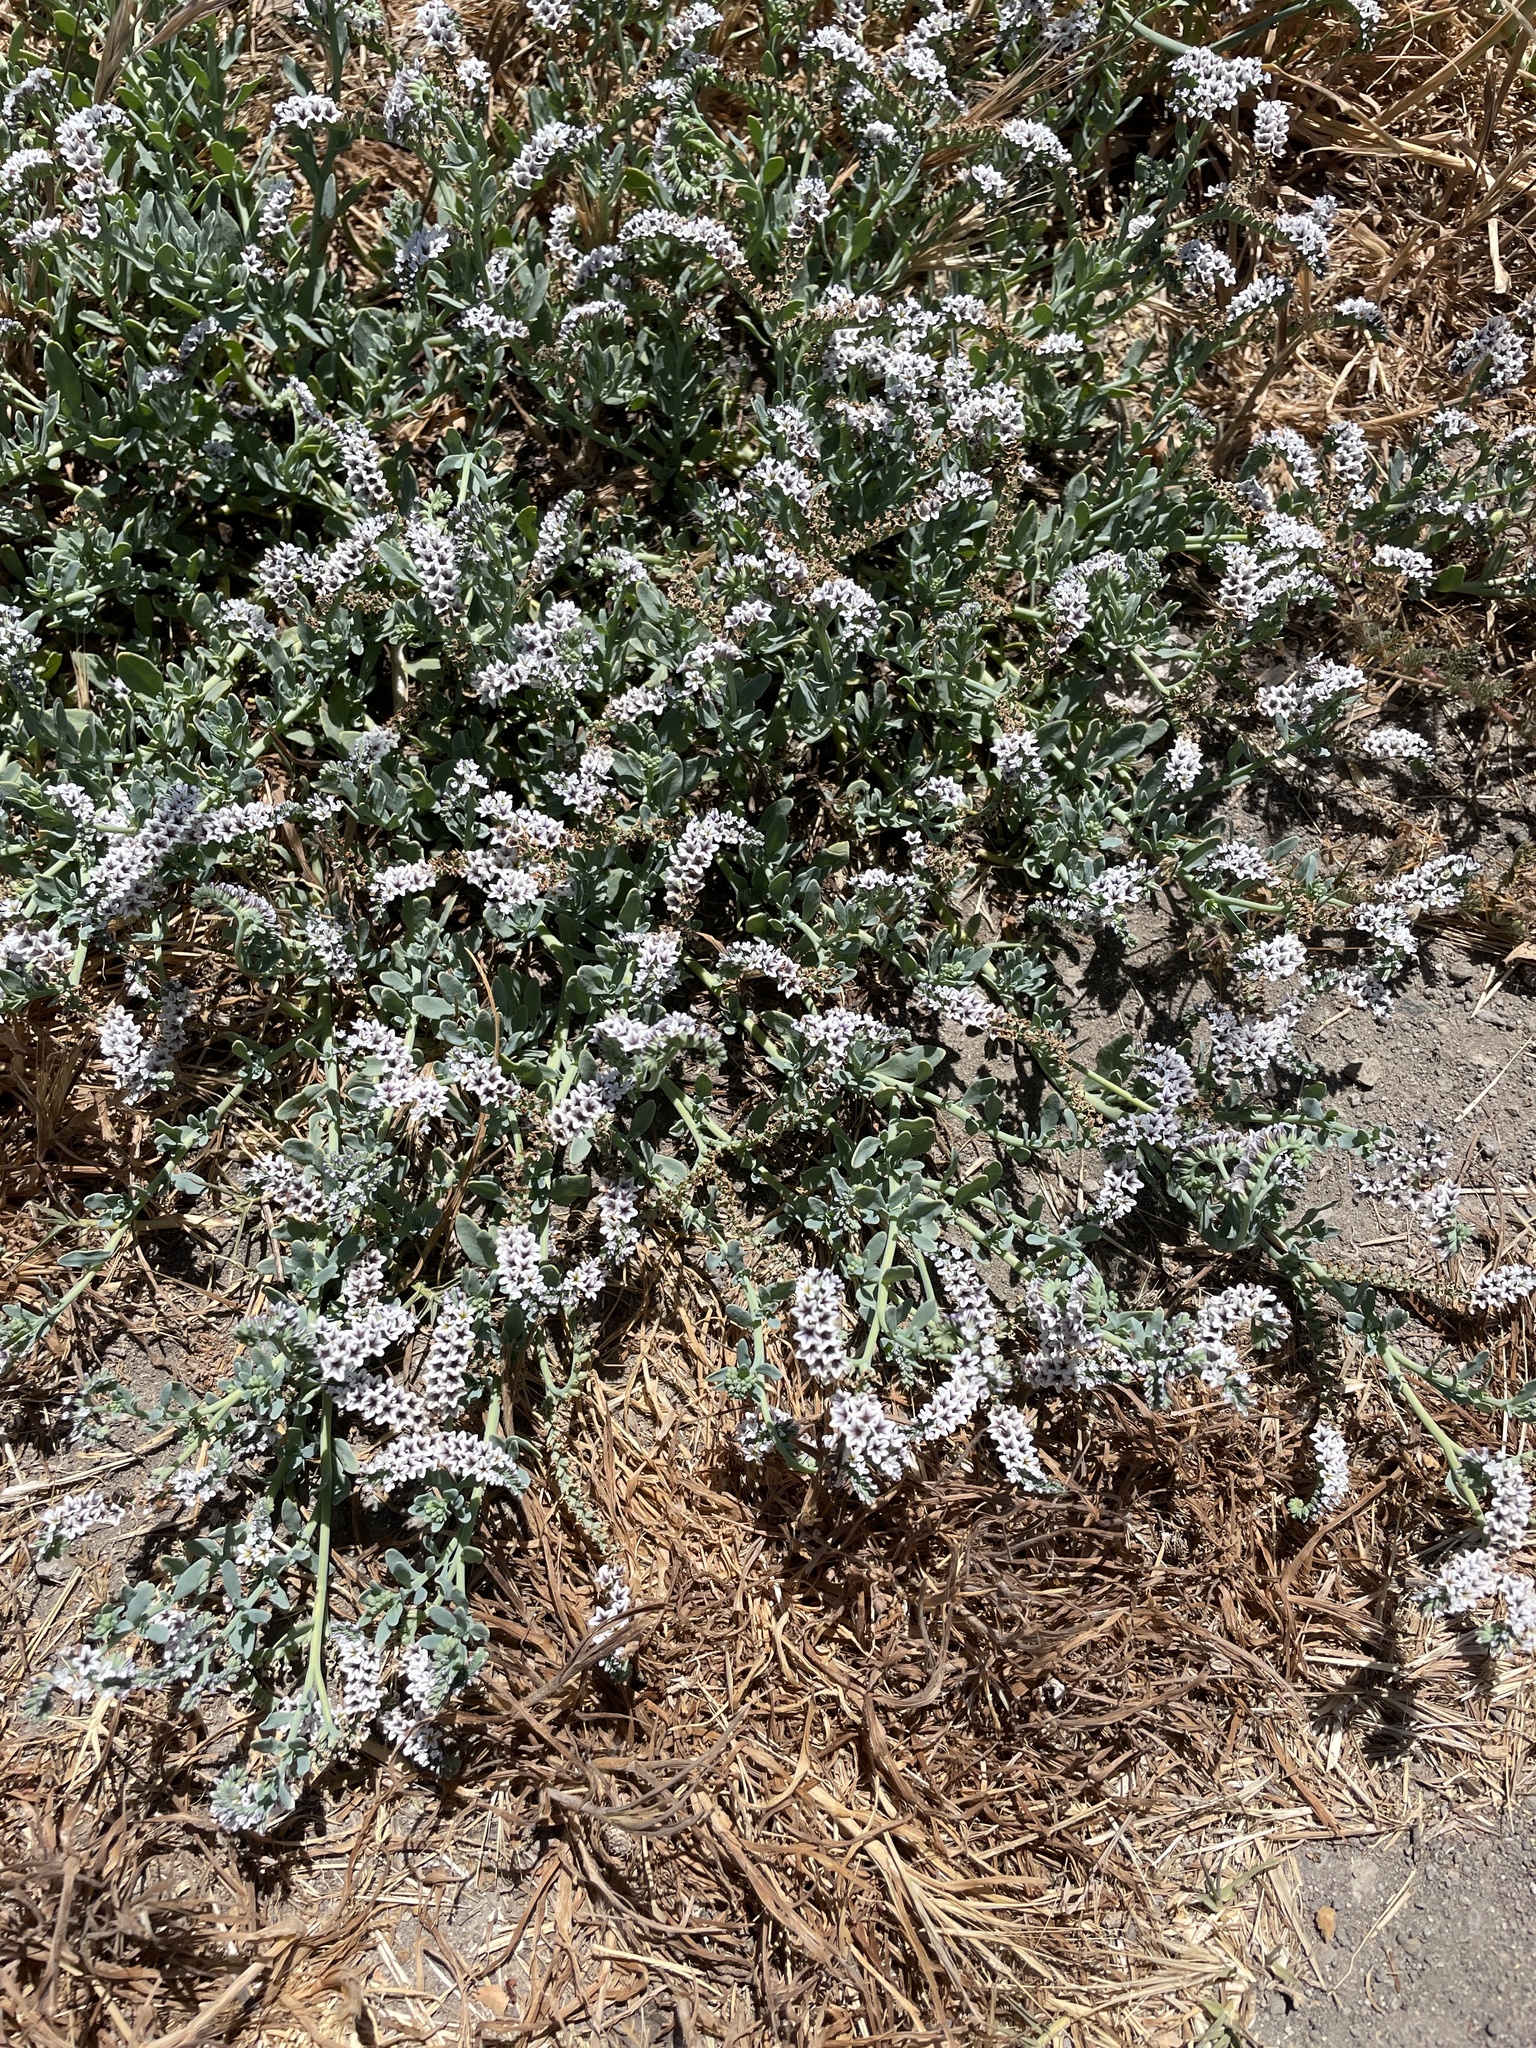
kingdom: Plantae
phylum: Tracheophyta
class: Magnoliopsida
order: Boraginales
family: Heliotropiaceae
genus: Heliotropium
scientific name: Heliotropium curassavicum
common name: Seaside heliotrope
